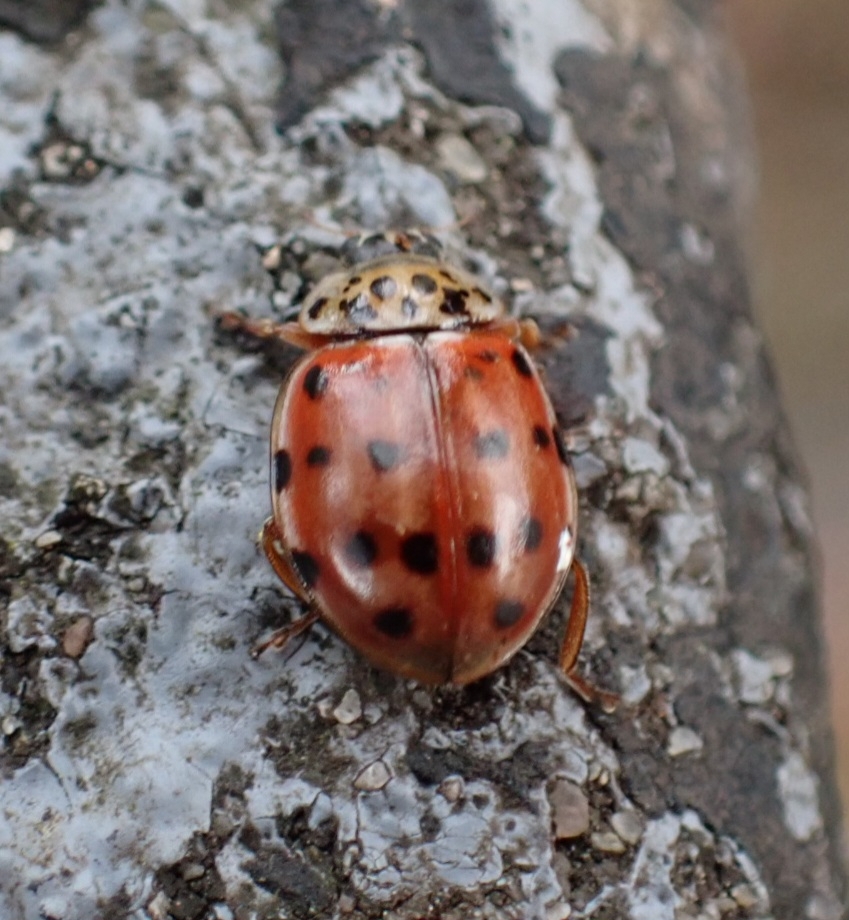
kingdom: Animalia
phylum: Arthropoda
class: Insecta
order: Coleoptera
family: Coccinellidae
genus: Harmonia
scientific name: Harmonia quadripunctata
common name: Cream-streaked ladybird
